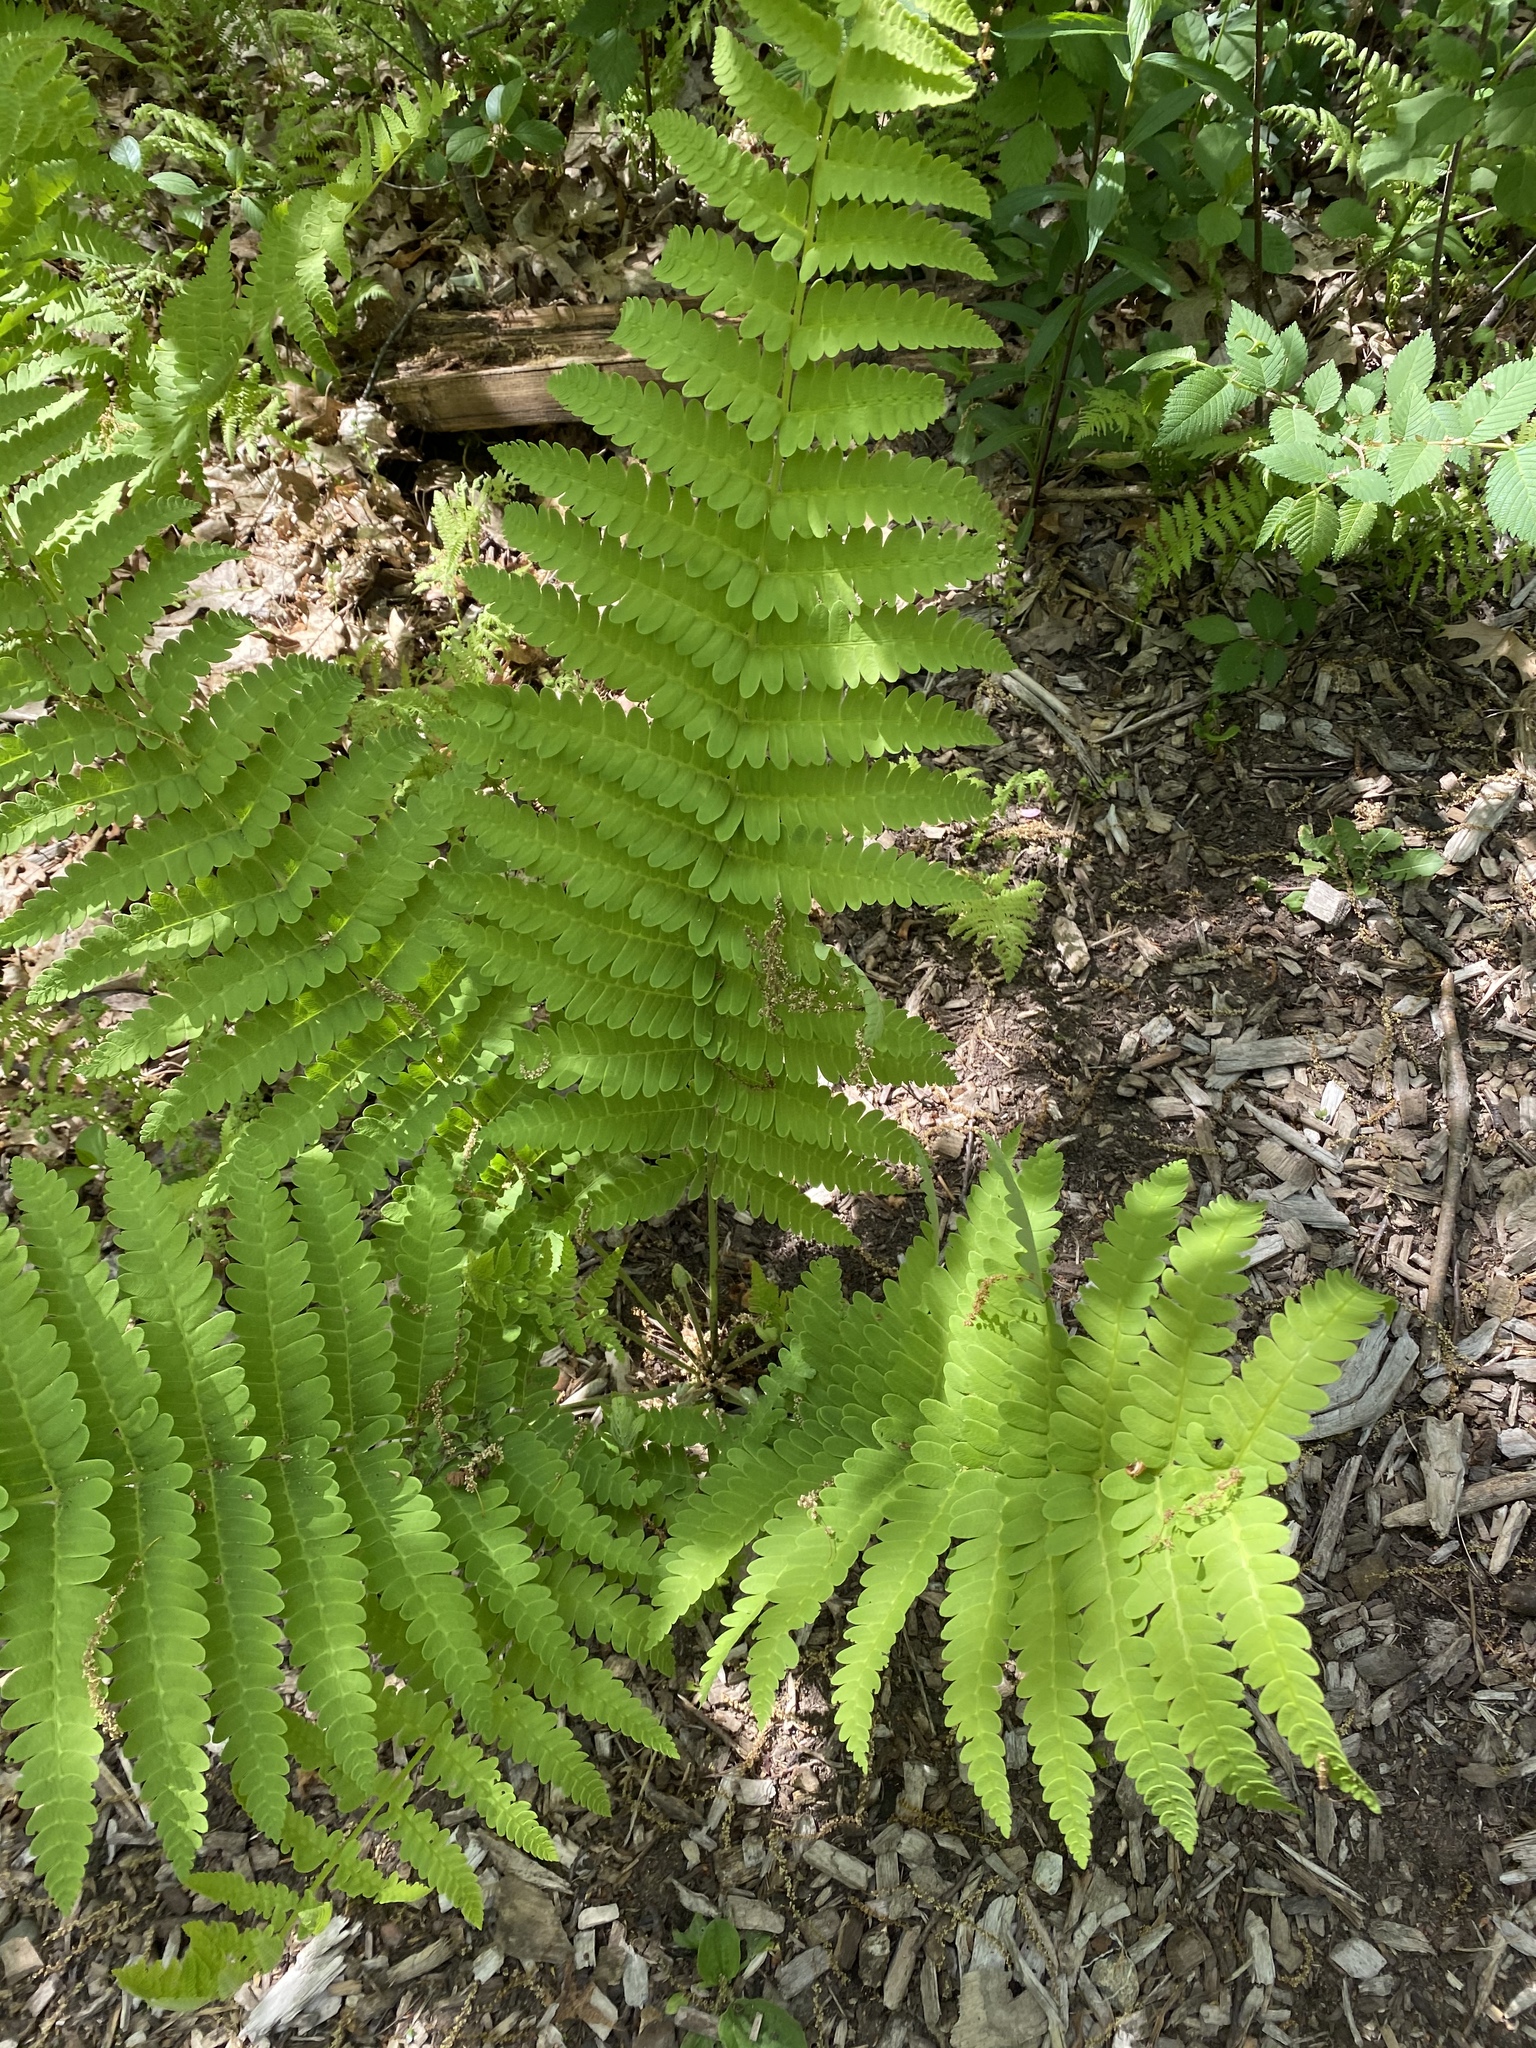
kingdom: Plantae
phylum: Tracheophyta
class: Polypodiopsida
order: Osmundales
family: Osmundaceae
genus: Claytosmunda
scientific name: Claytosmunda claytoniana
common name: Clayton's fern
